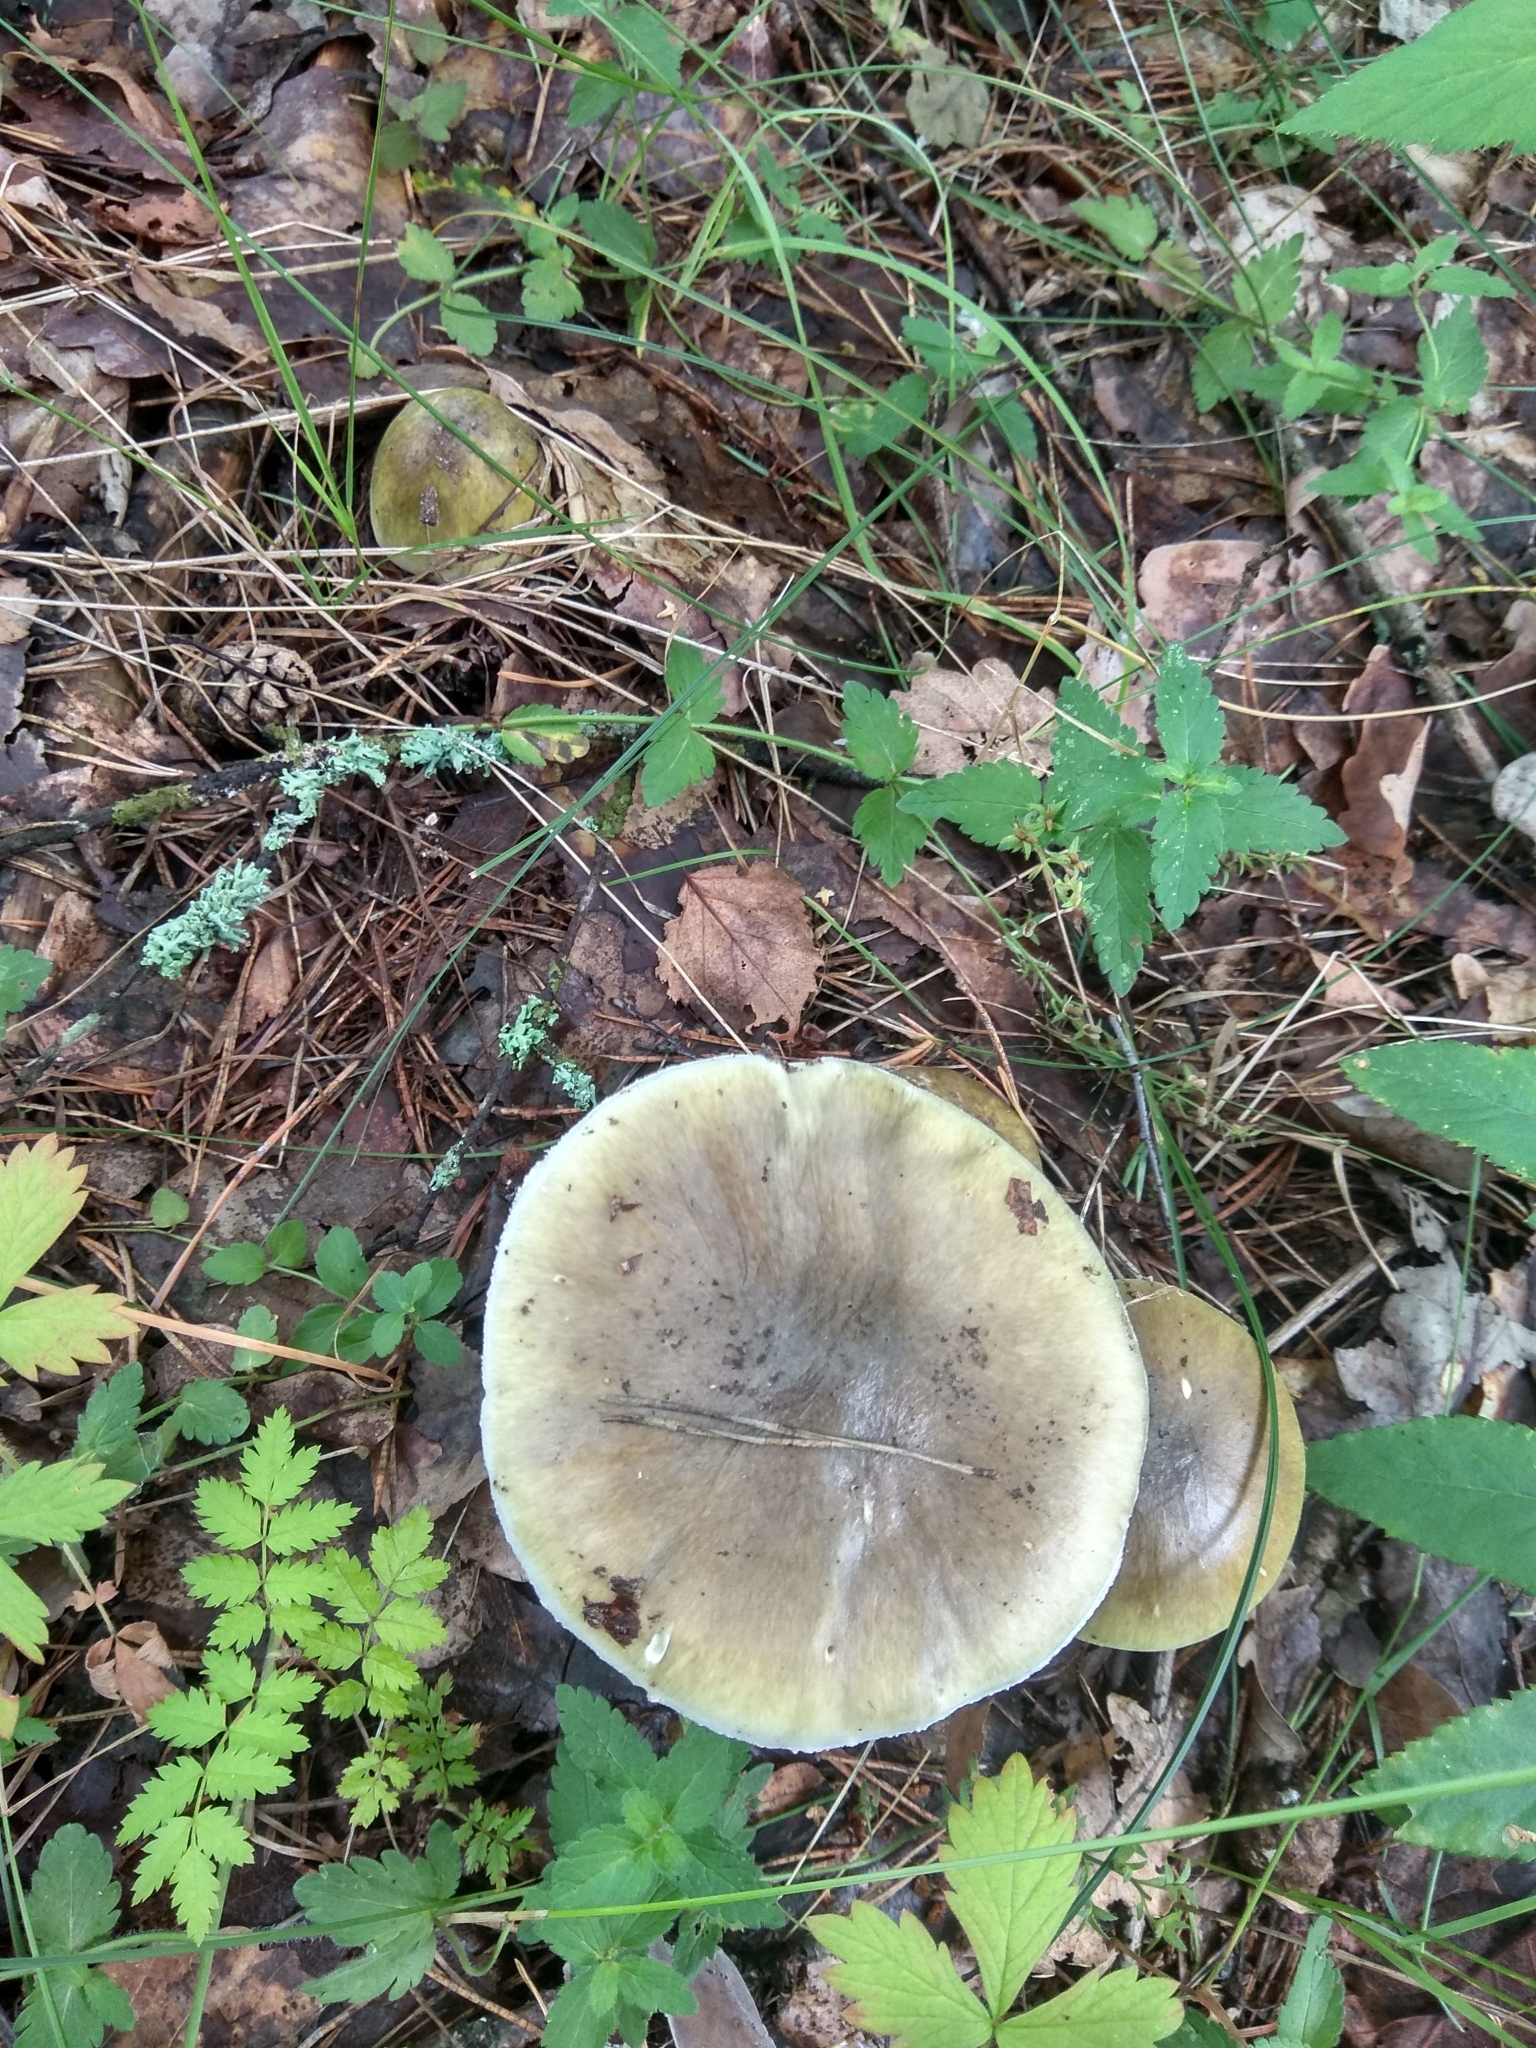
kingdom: Fungi
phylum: Basidiomycota
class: Agaricomycetes
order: Agaricales
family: Amanitaceae
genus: Amanita
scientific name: Amanita phalloides
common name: Death cap
